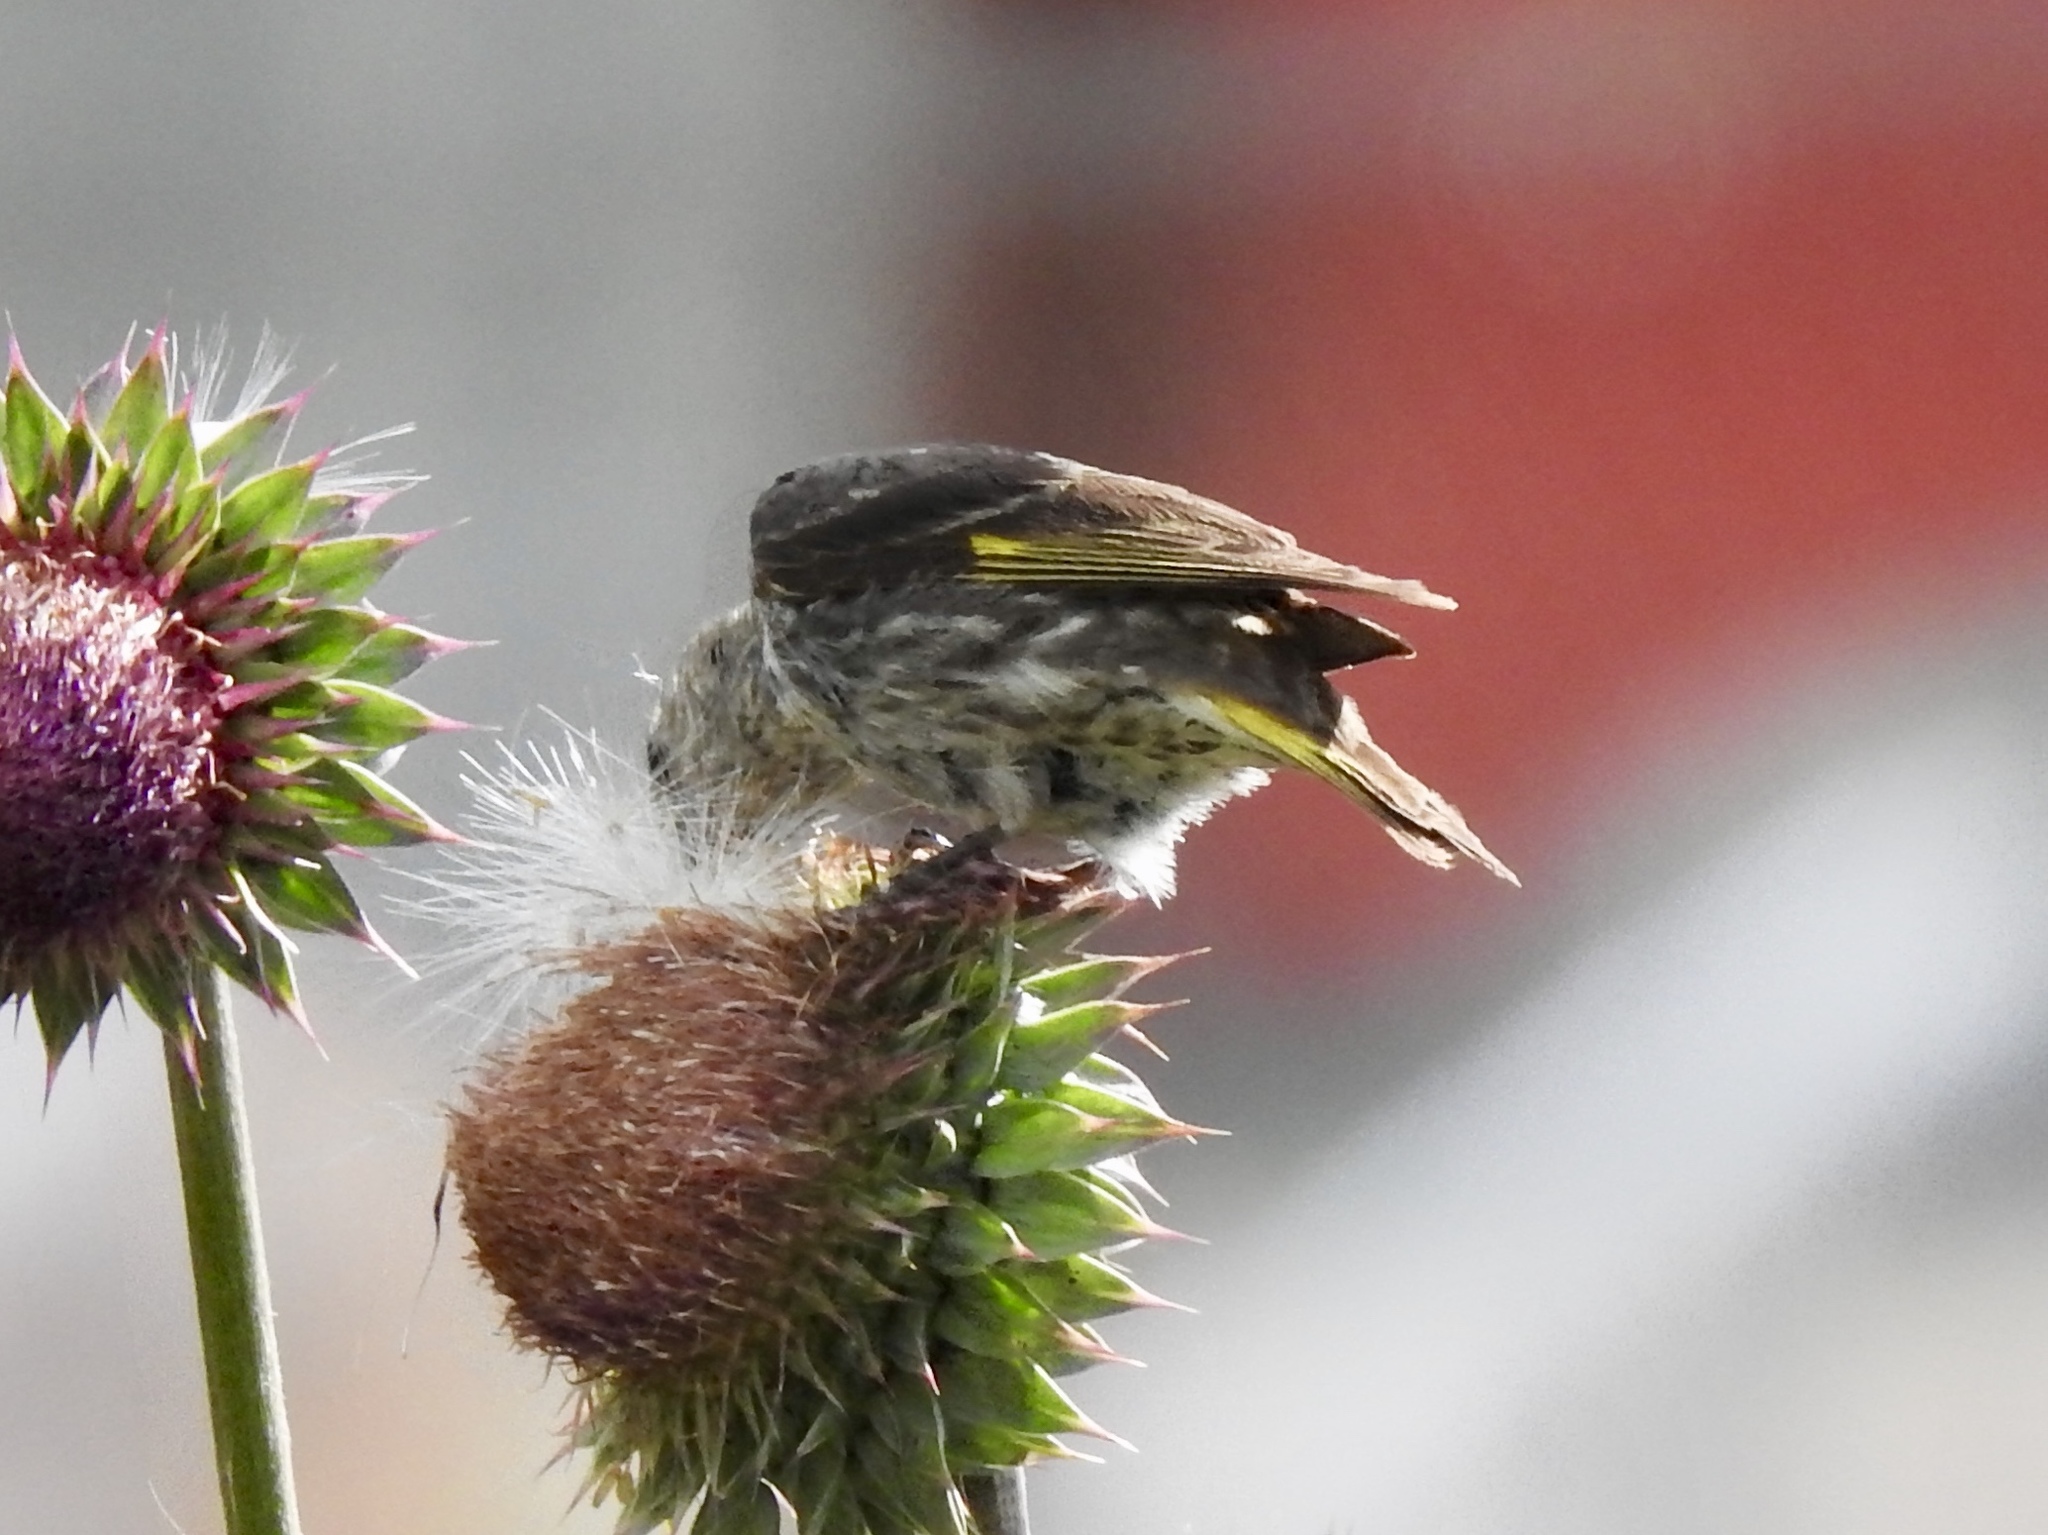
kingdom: Animalia
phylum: Chordata
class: Aves
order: Passeriformes
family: Fringillidae
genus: Spinus
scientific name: Spinus pinus
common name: Pine siskin
